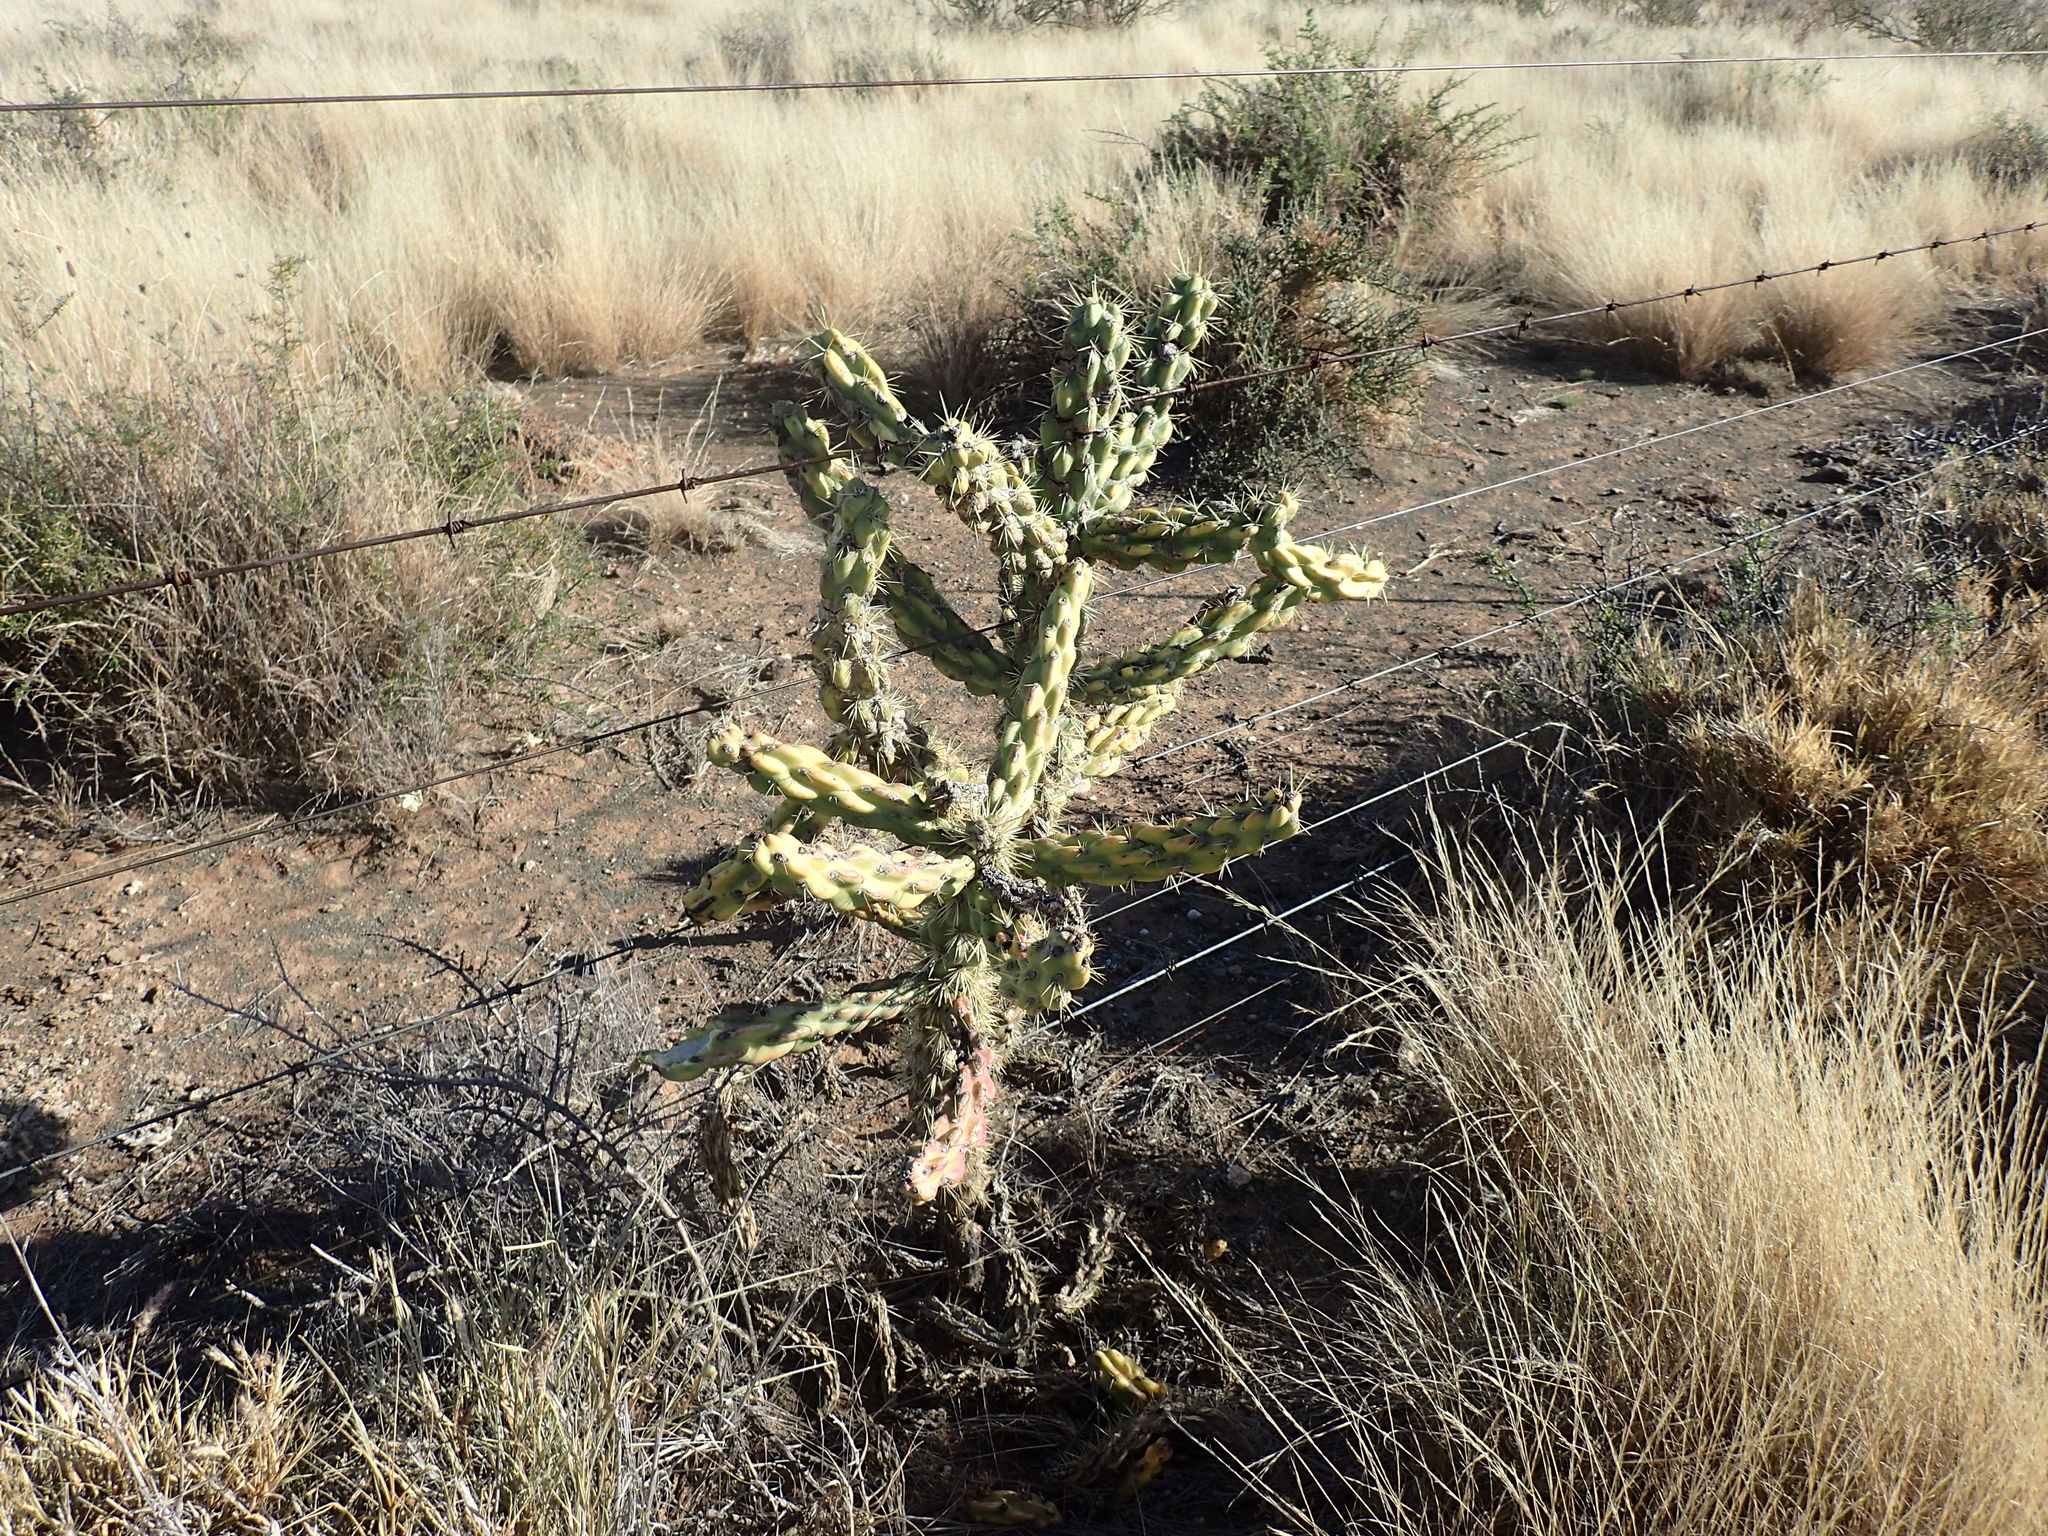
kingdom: Plantae
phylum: Tracheophyta
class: Magnoliopsida
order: Caryophyllales
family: Cactaceae
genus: Cylindropuntia
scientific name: Cylindropuntia imbricata
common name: Candelabrum cactus
